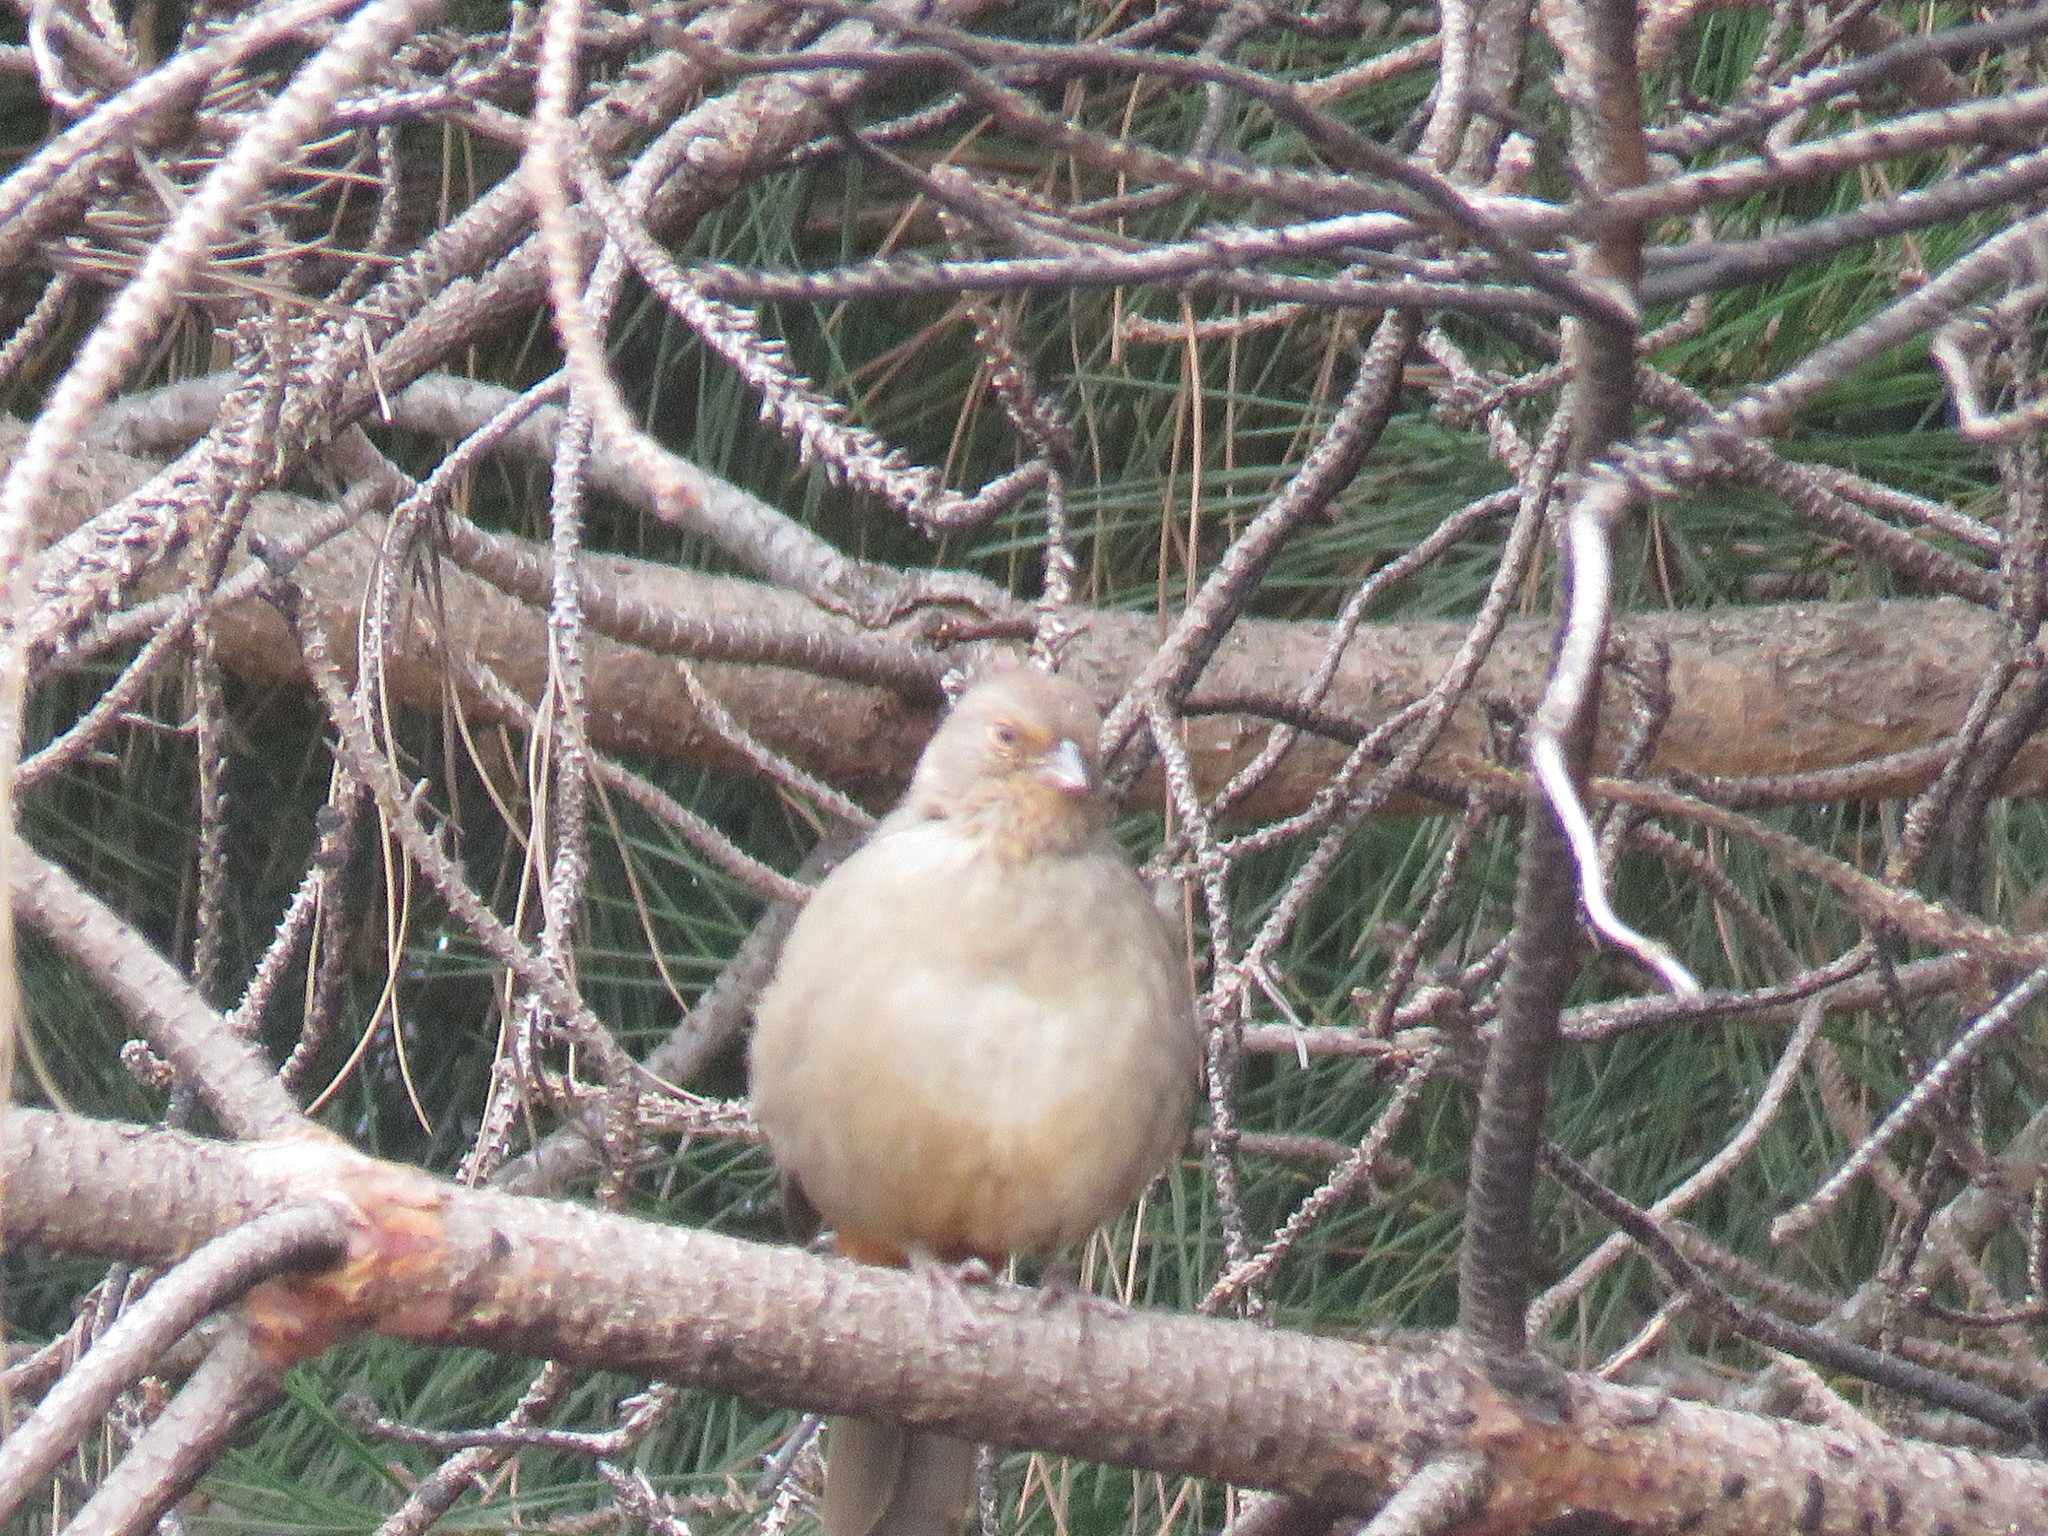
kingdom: Animalia
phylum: Chordata
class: Aves
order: Passeriformes
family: Passerellidae
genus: Melozone
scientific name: Melozone crissalis
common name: California towhee
